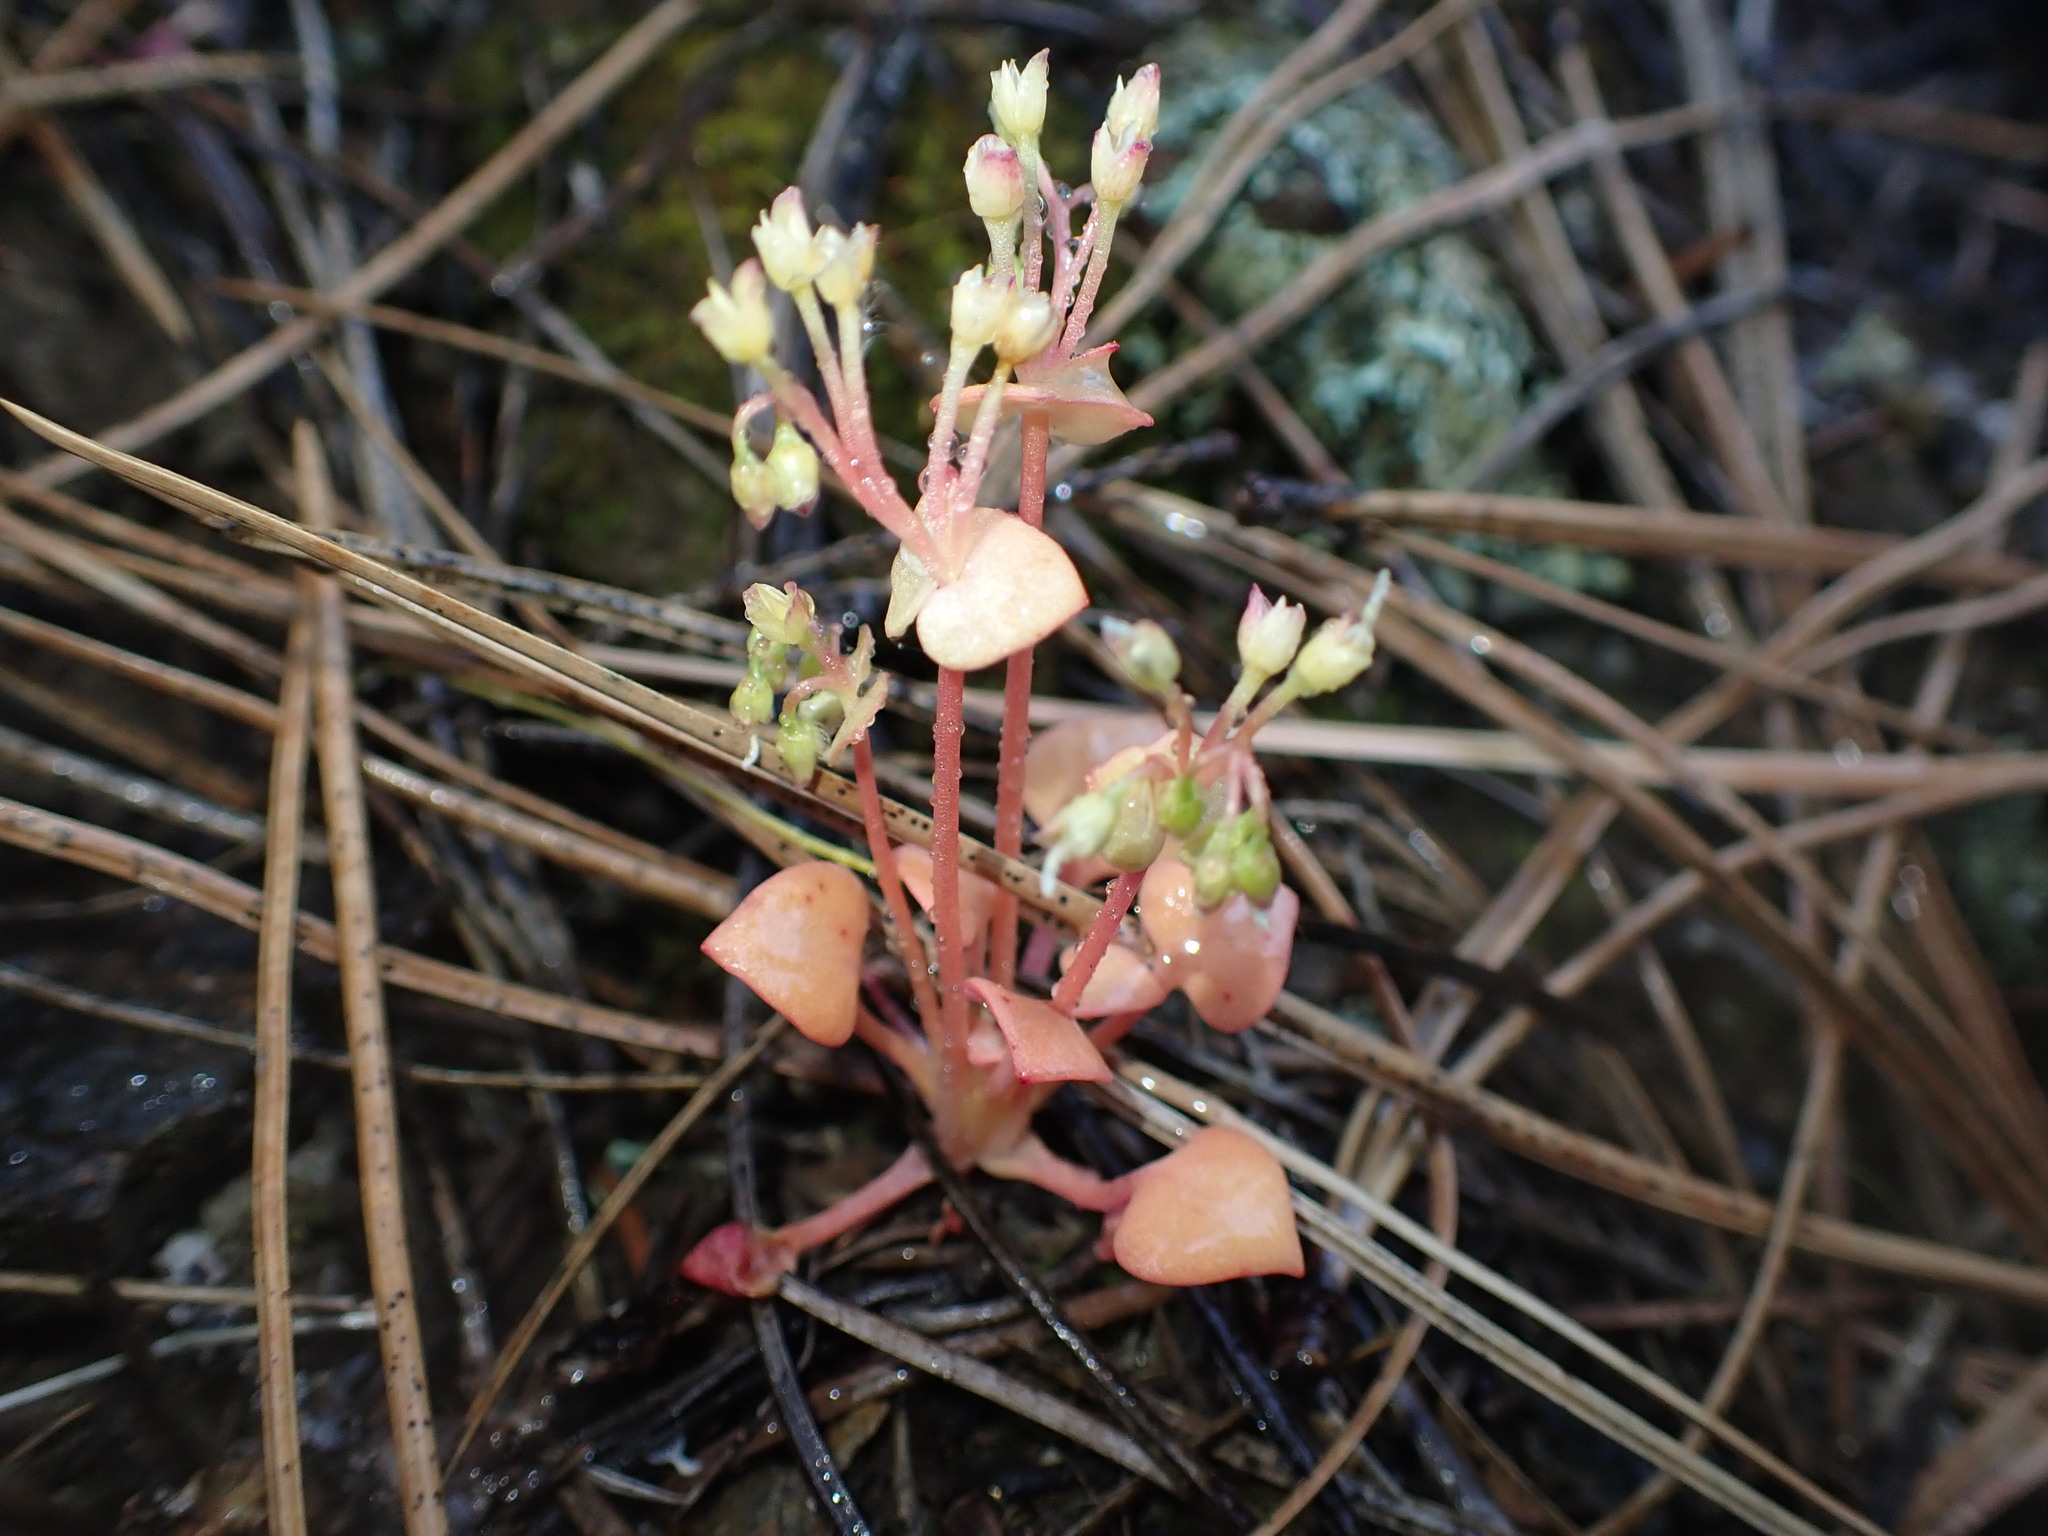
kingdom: Plantae
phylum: Tracheophyta
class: Magnoliopsida
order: Caryophyllales
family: Montiaceae
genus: Claytonia
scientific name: Claytonia rubra
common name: Erubescent miner's-lettuce
